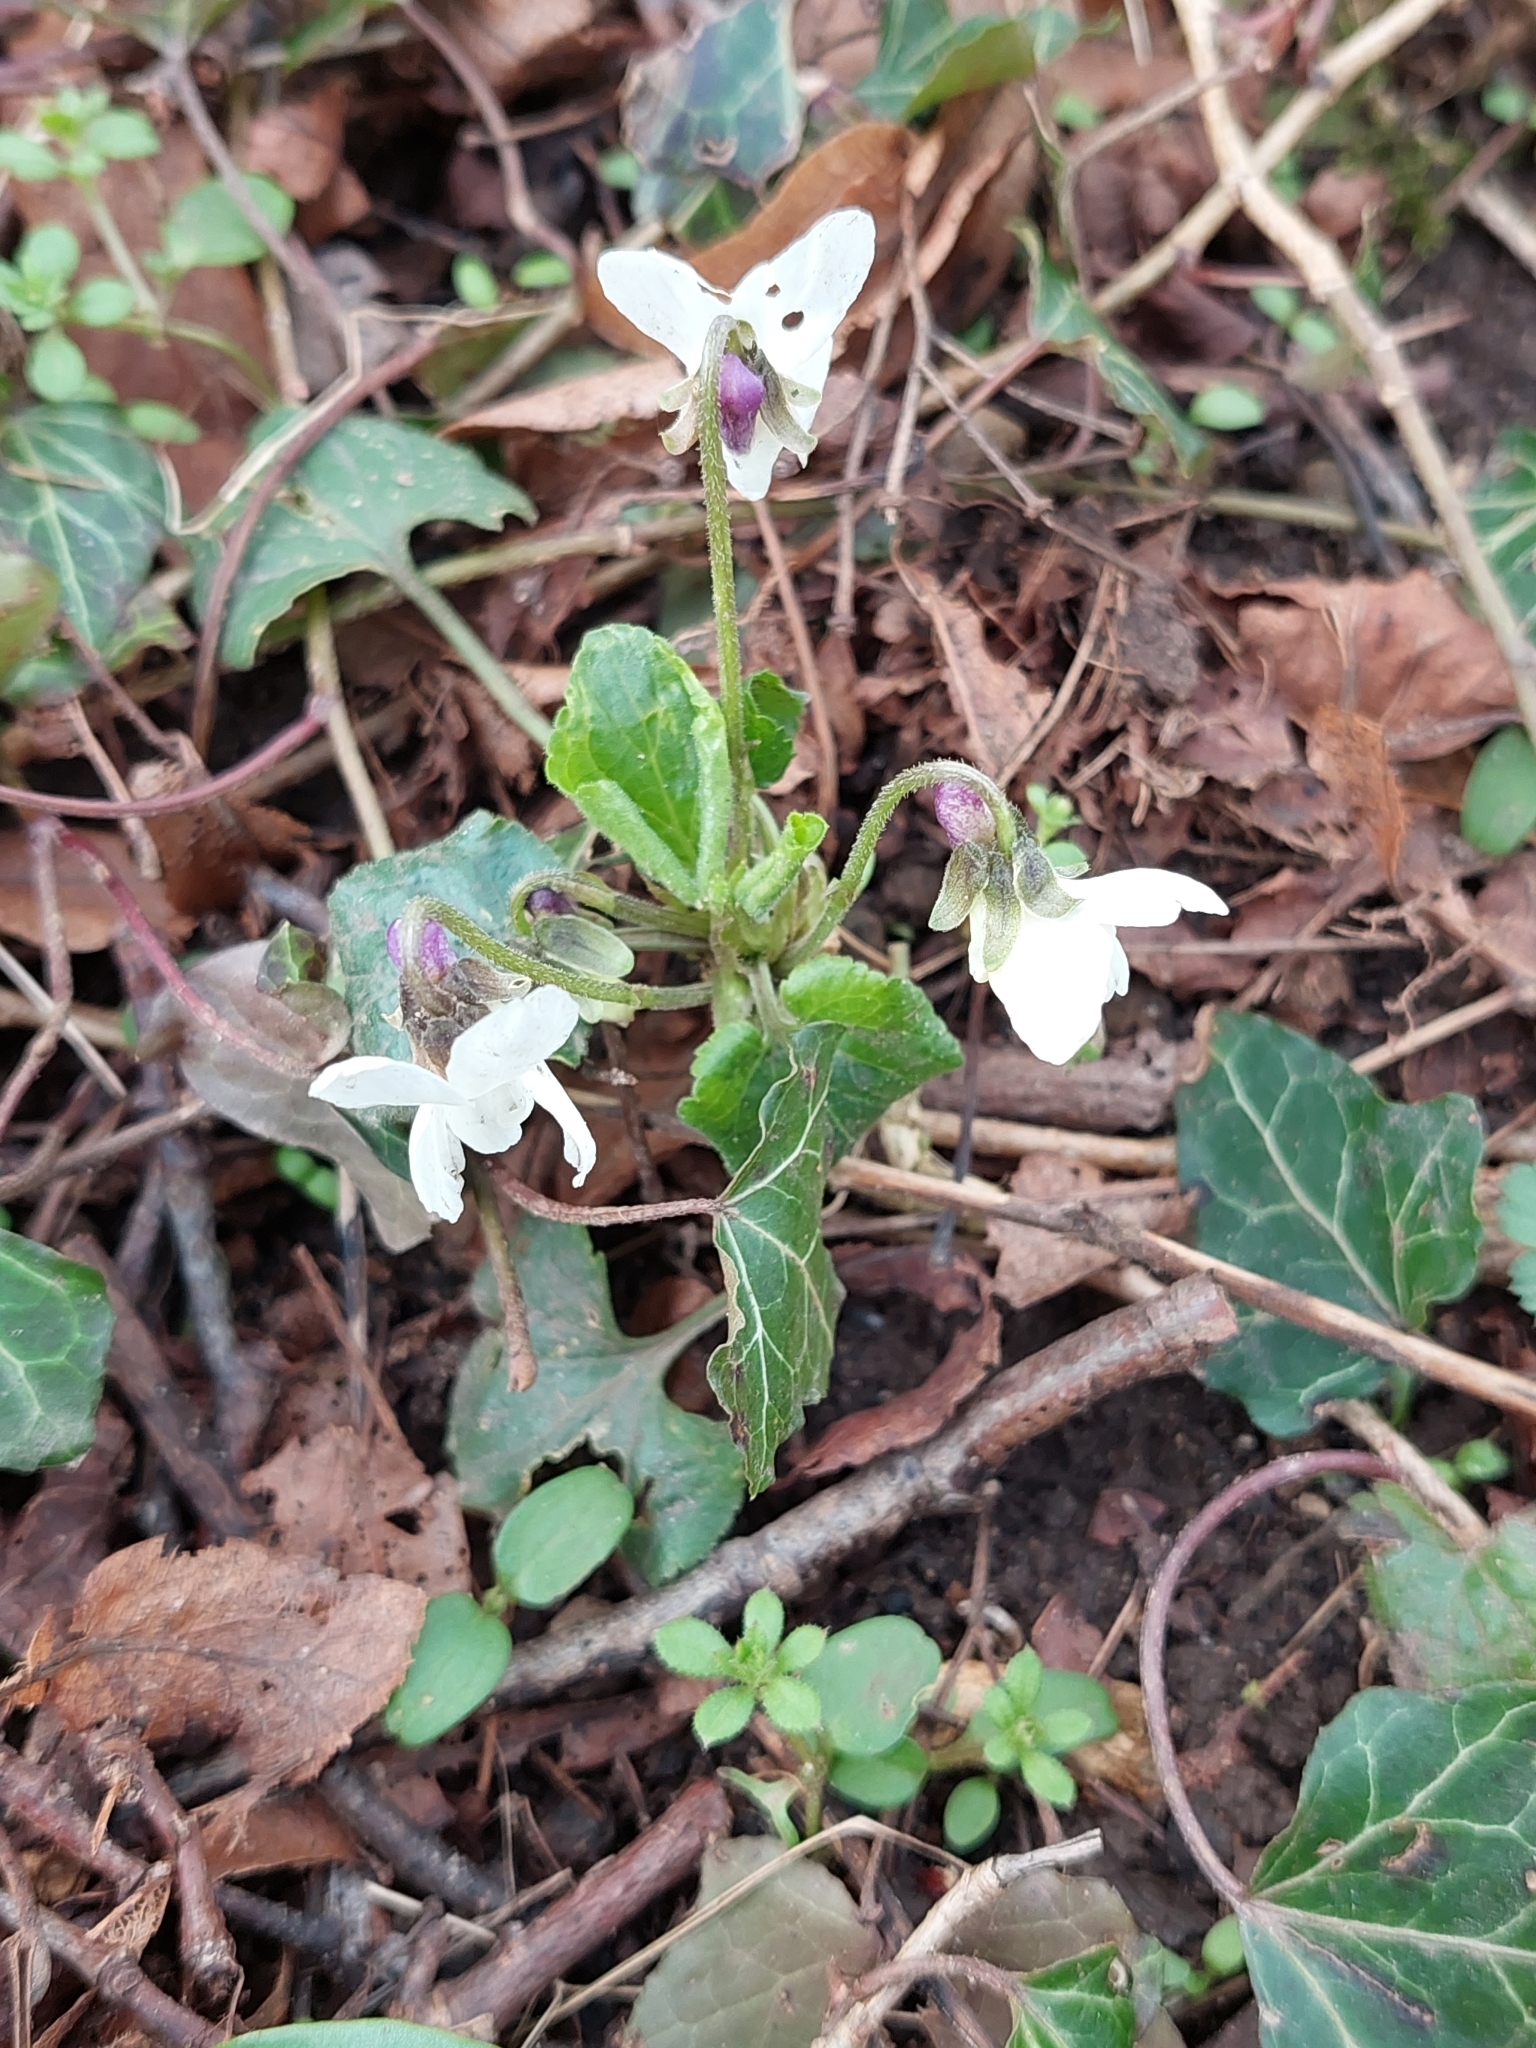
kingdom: Plantae
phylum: Tracheophyta
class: Magnoliopsida
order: Malpighiales
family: Violaceae
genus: Viola
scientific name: Viola odorata
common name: Sweet violet
